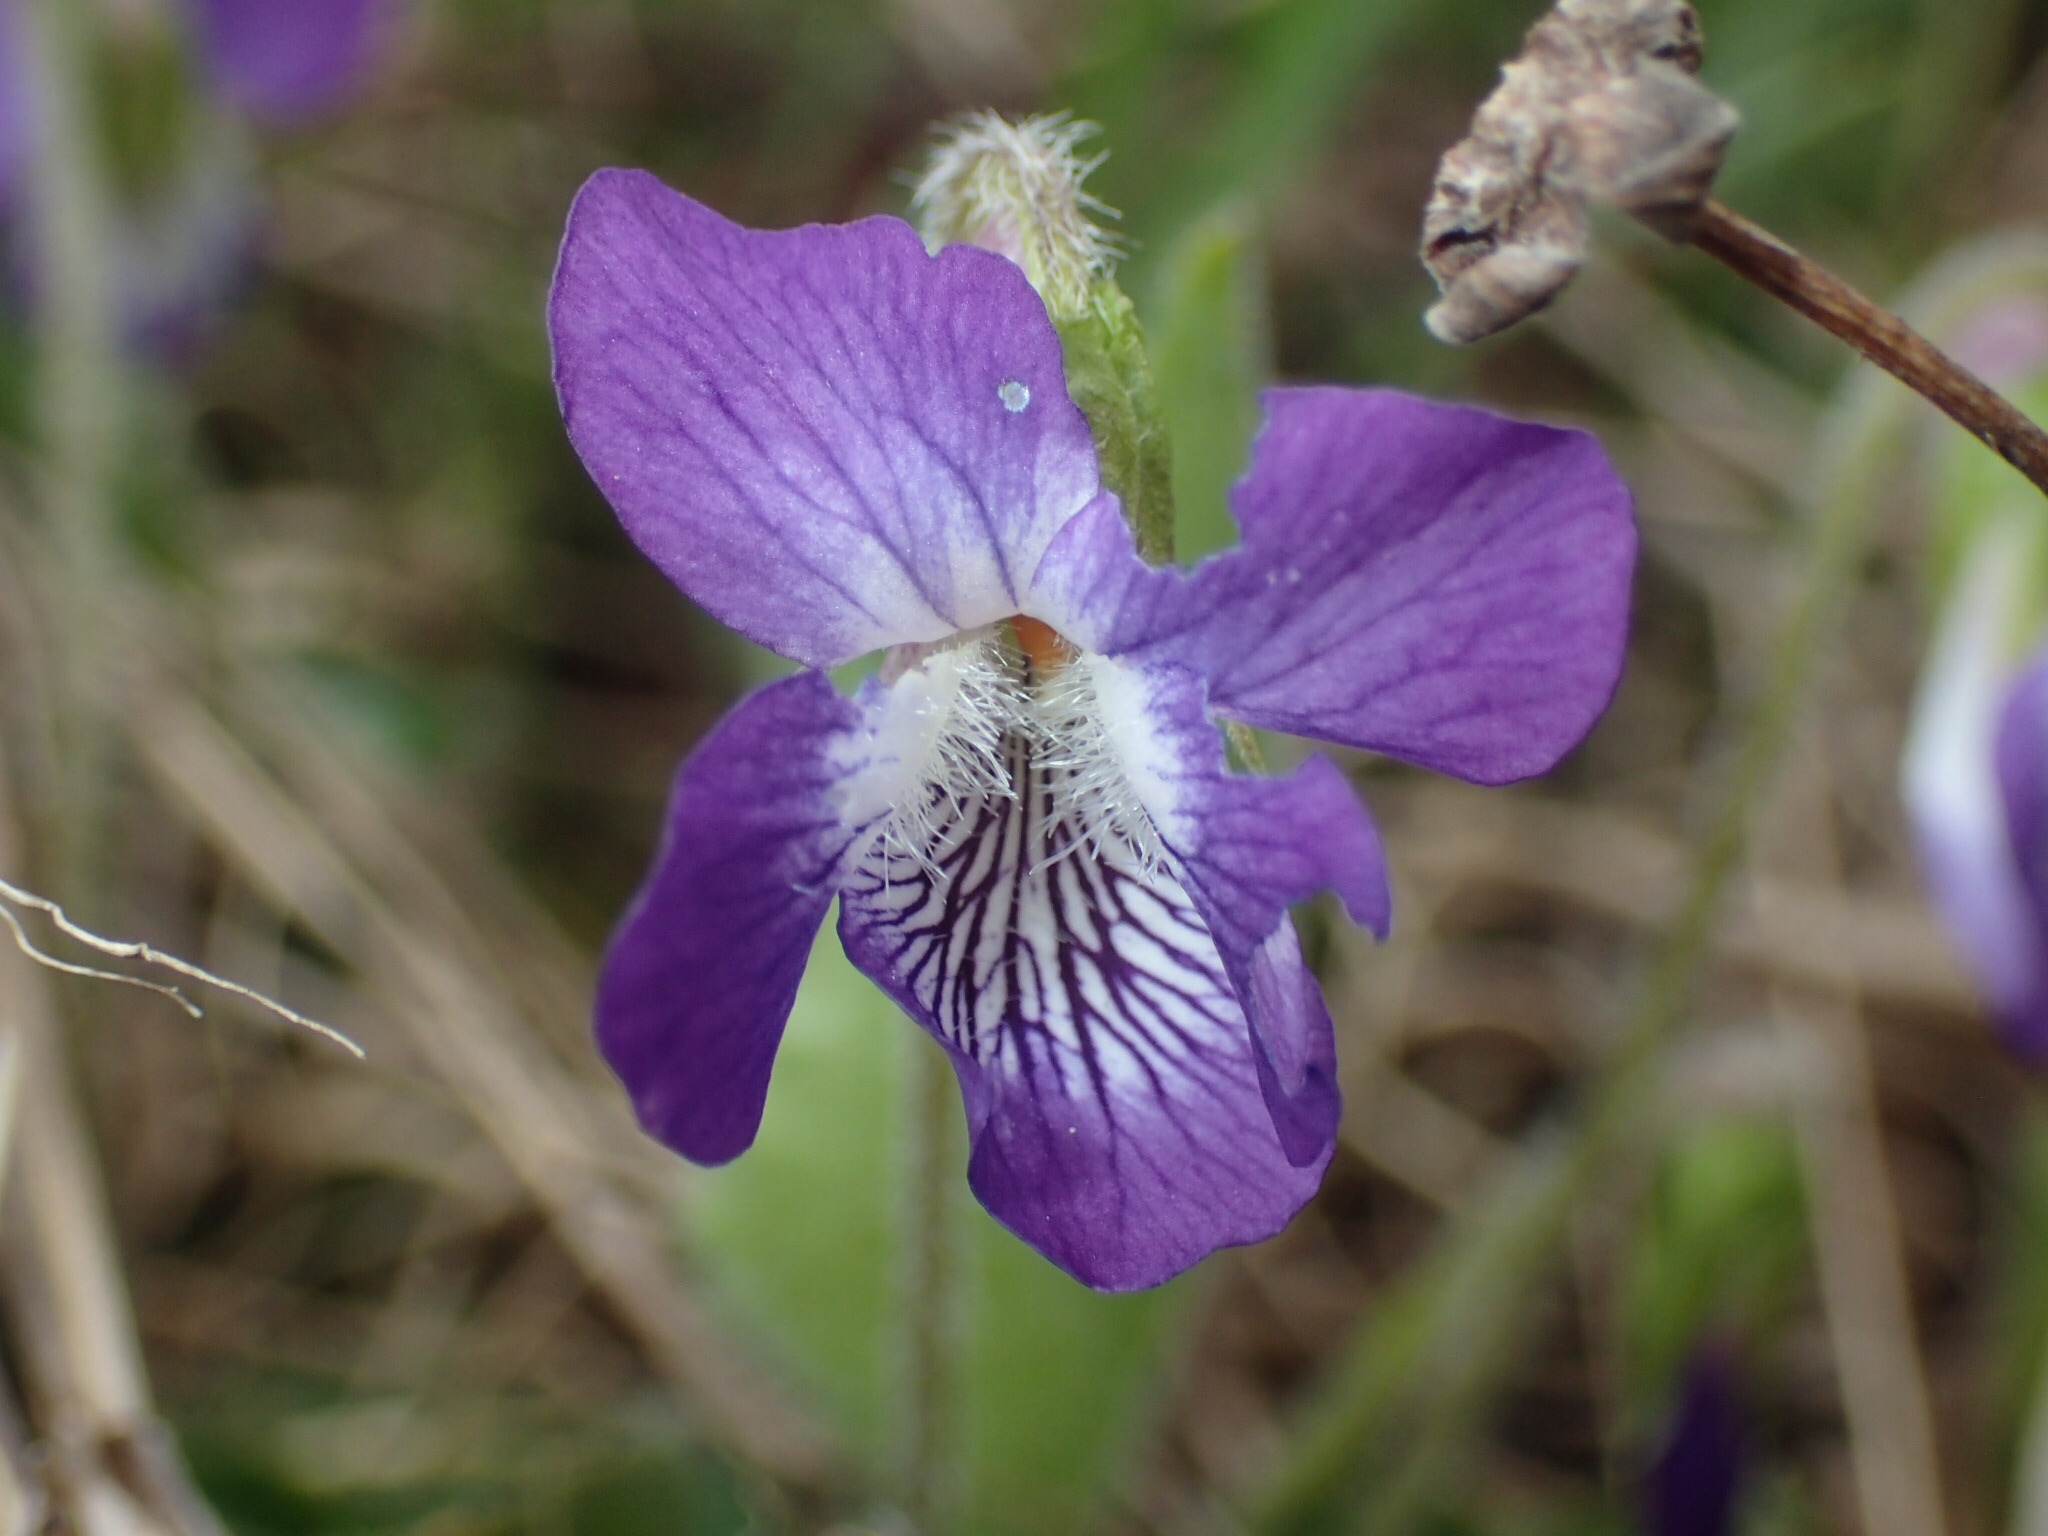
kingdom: Plantae
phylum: Tracheophyta
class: Magnoliopsida
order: Malpighiales
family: Violaceae
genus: Viola
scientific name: Viola sororia
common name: Dooryard violet
